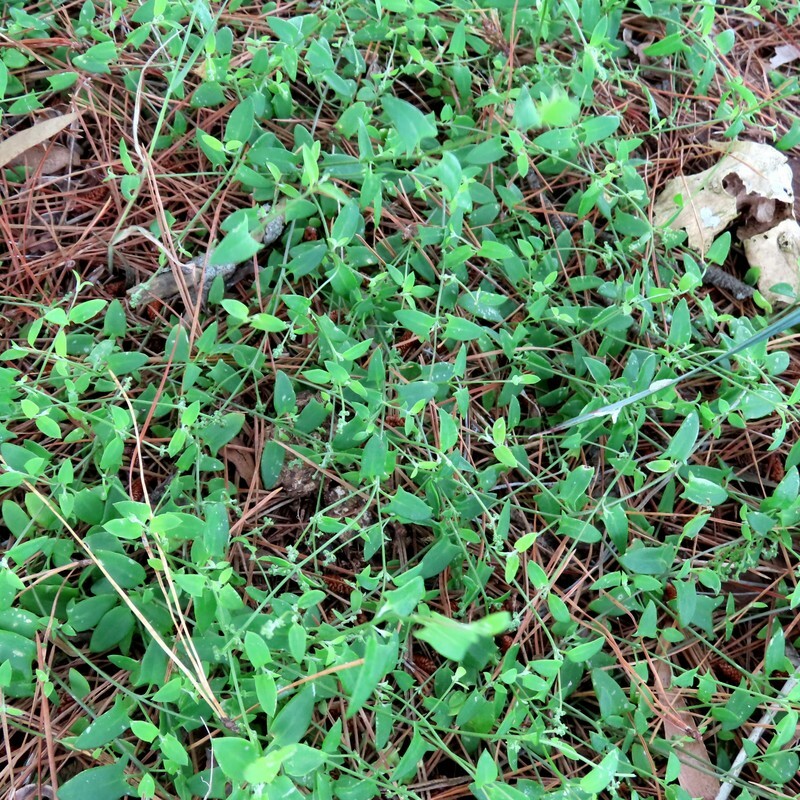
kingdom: Plantae
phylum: Tracheophyta
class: Magnoliopsida
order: Caryophyllales
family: Amaranthaceae
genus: Chenopodium
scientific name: Chenopodium nutans
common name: Climbing-saltbush
